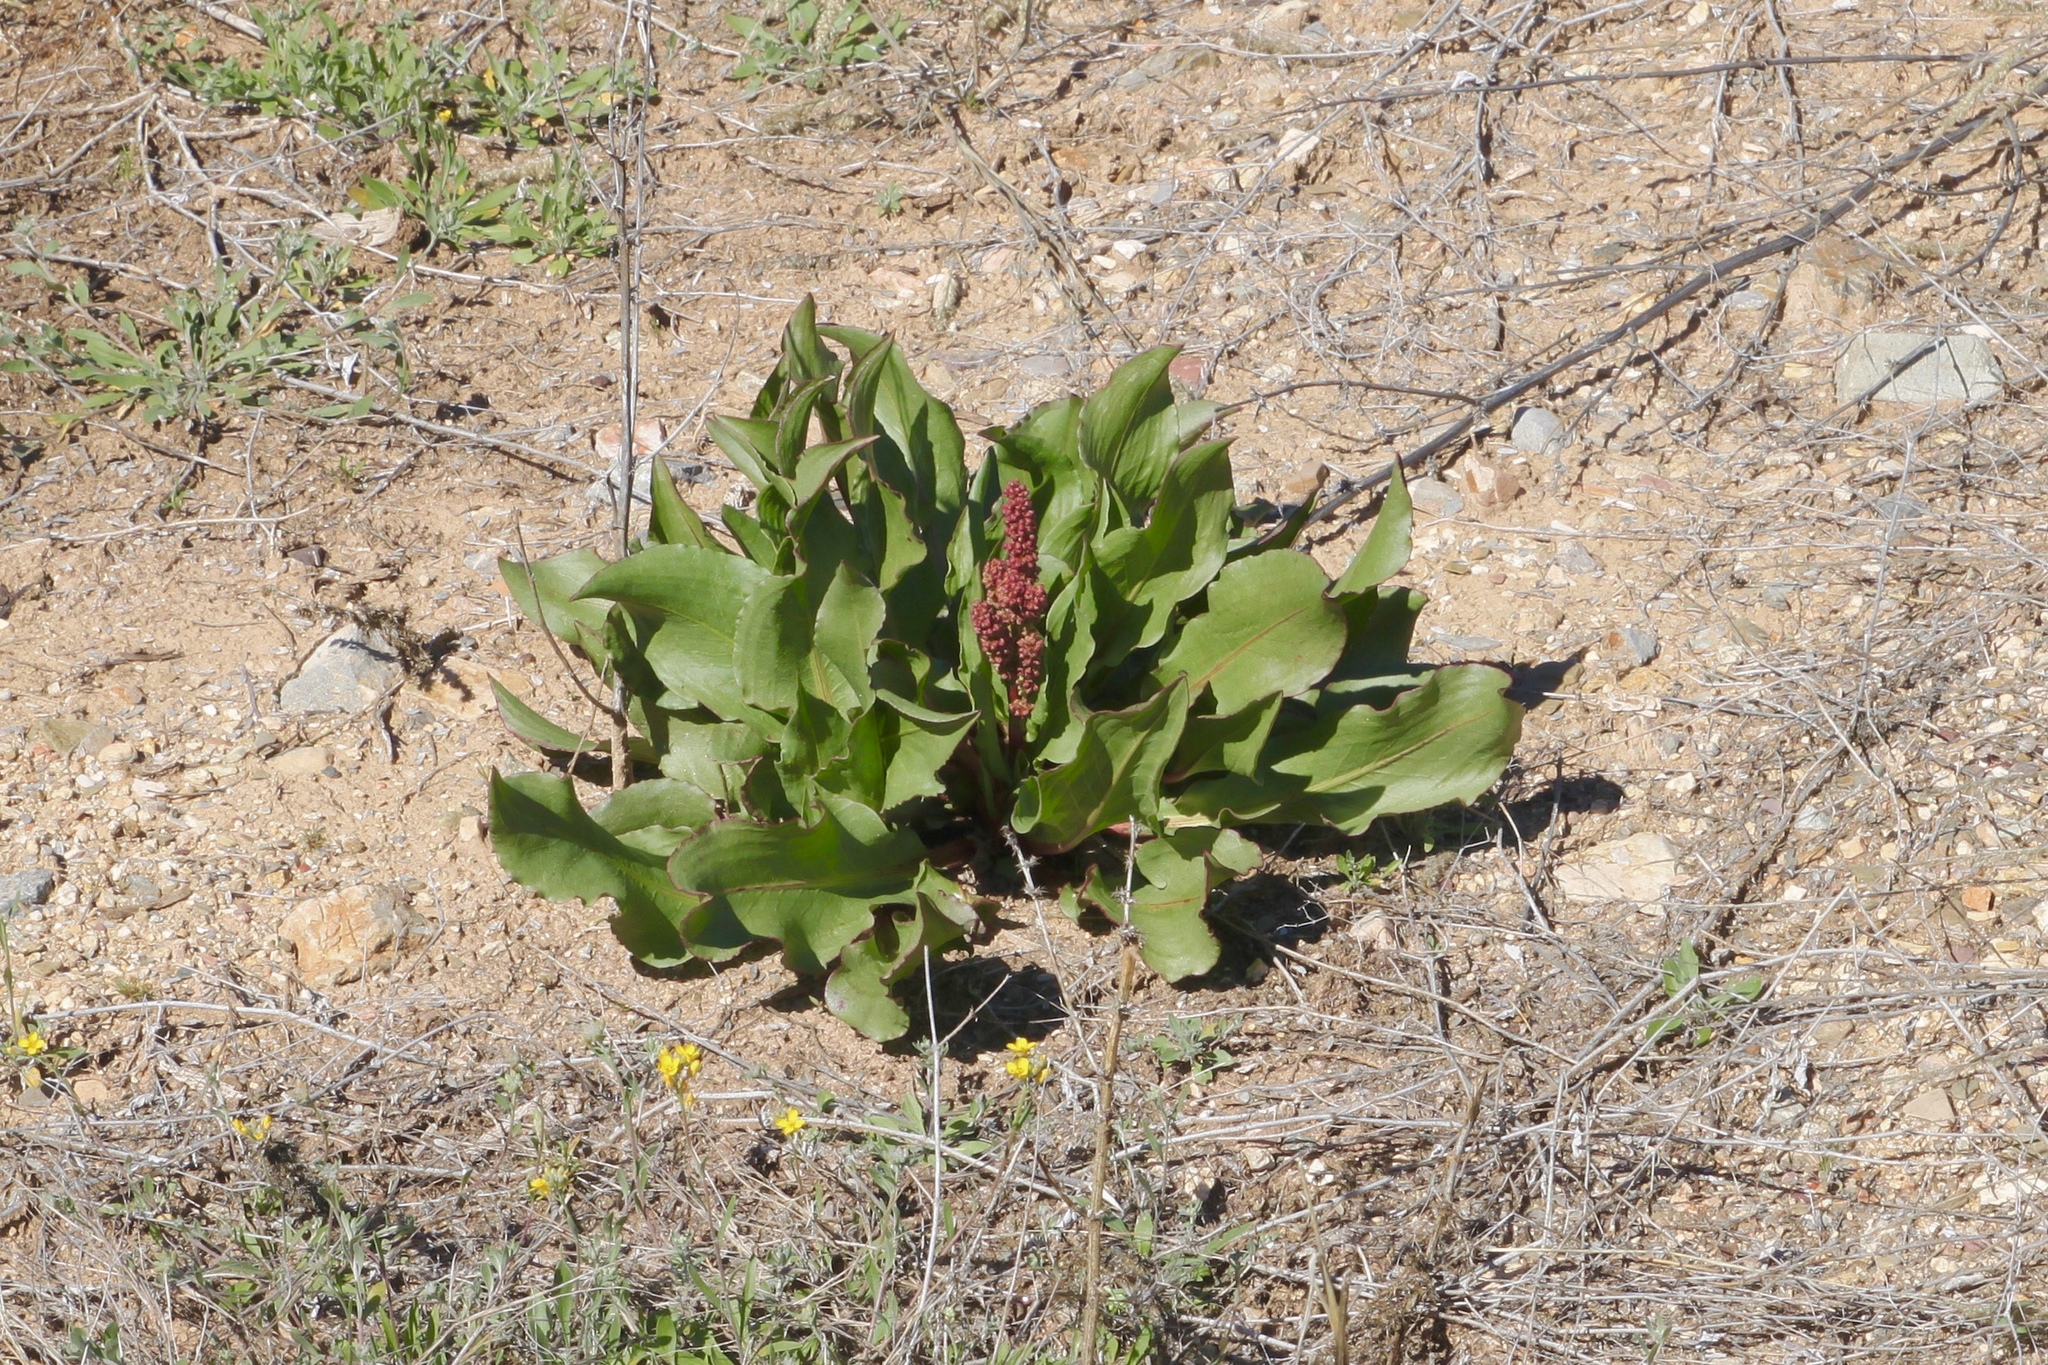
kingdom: Plantae
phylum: Tracheophyta
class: Magnoliopsida
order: Caryophyllales
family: Polygonaceae
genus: Rumex
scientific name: Rumex hymenosepalus
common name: Ganagra
